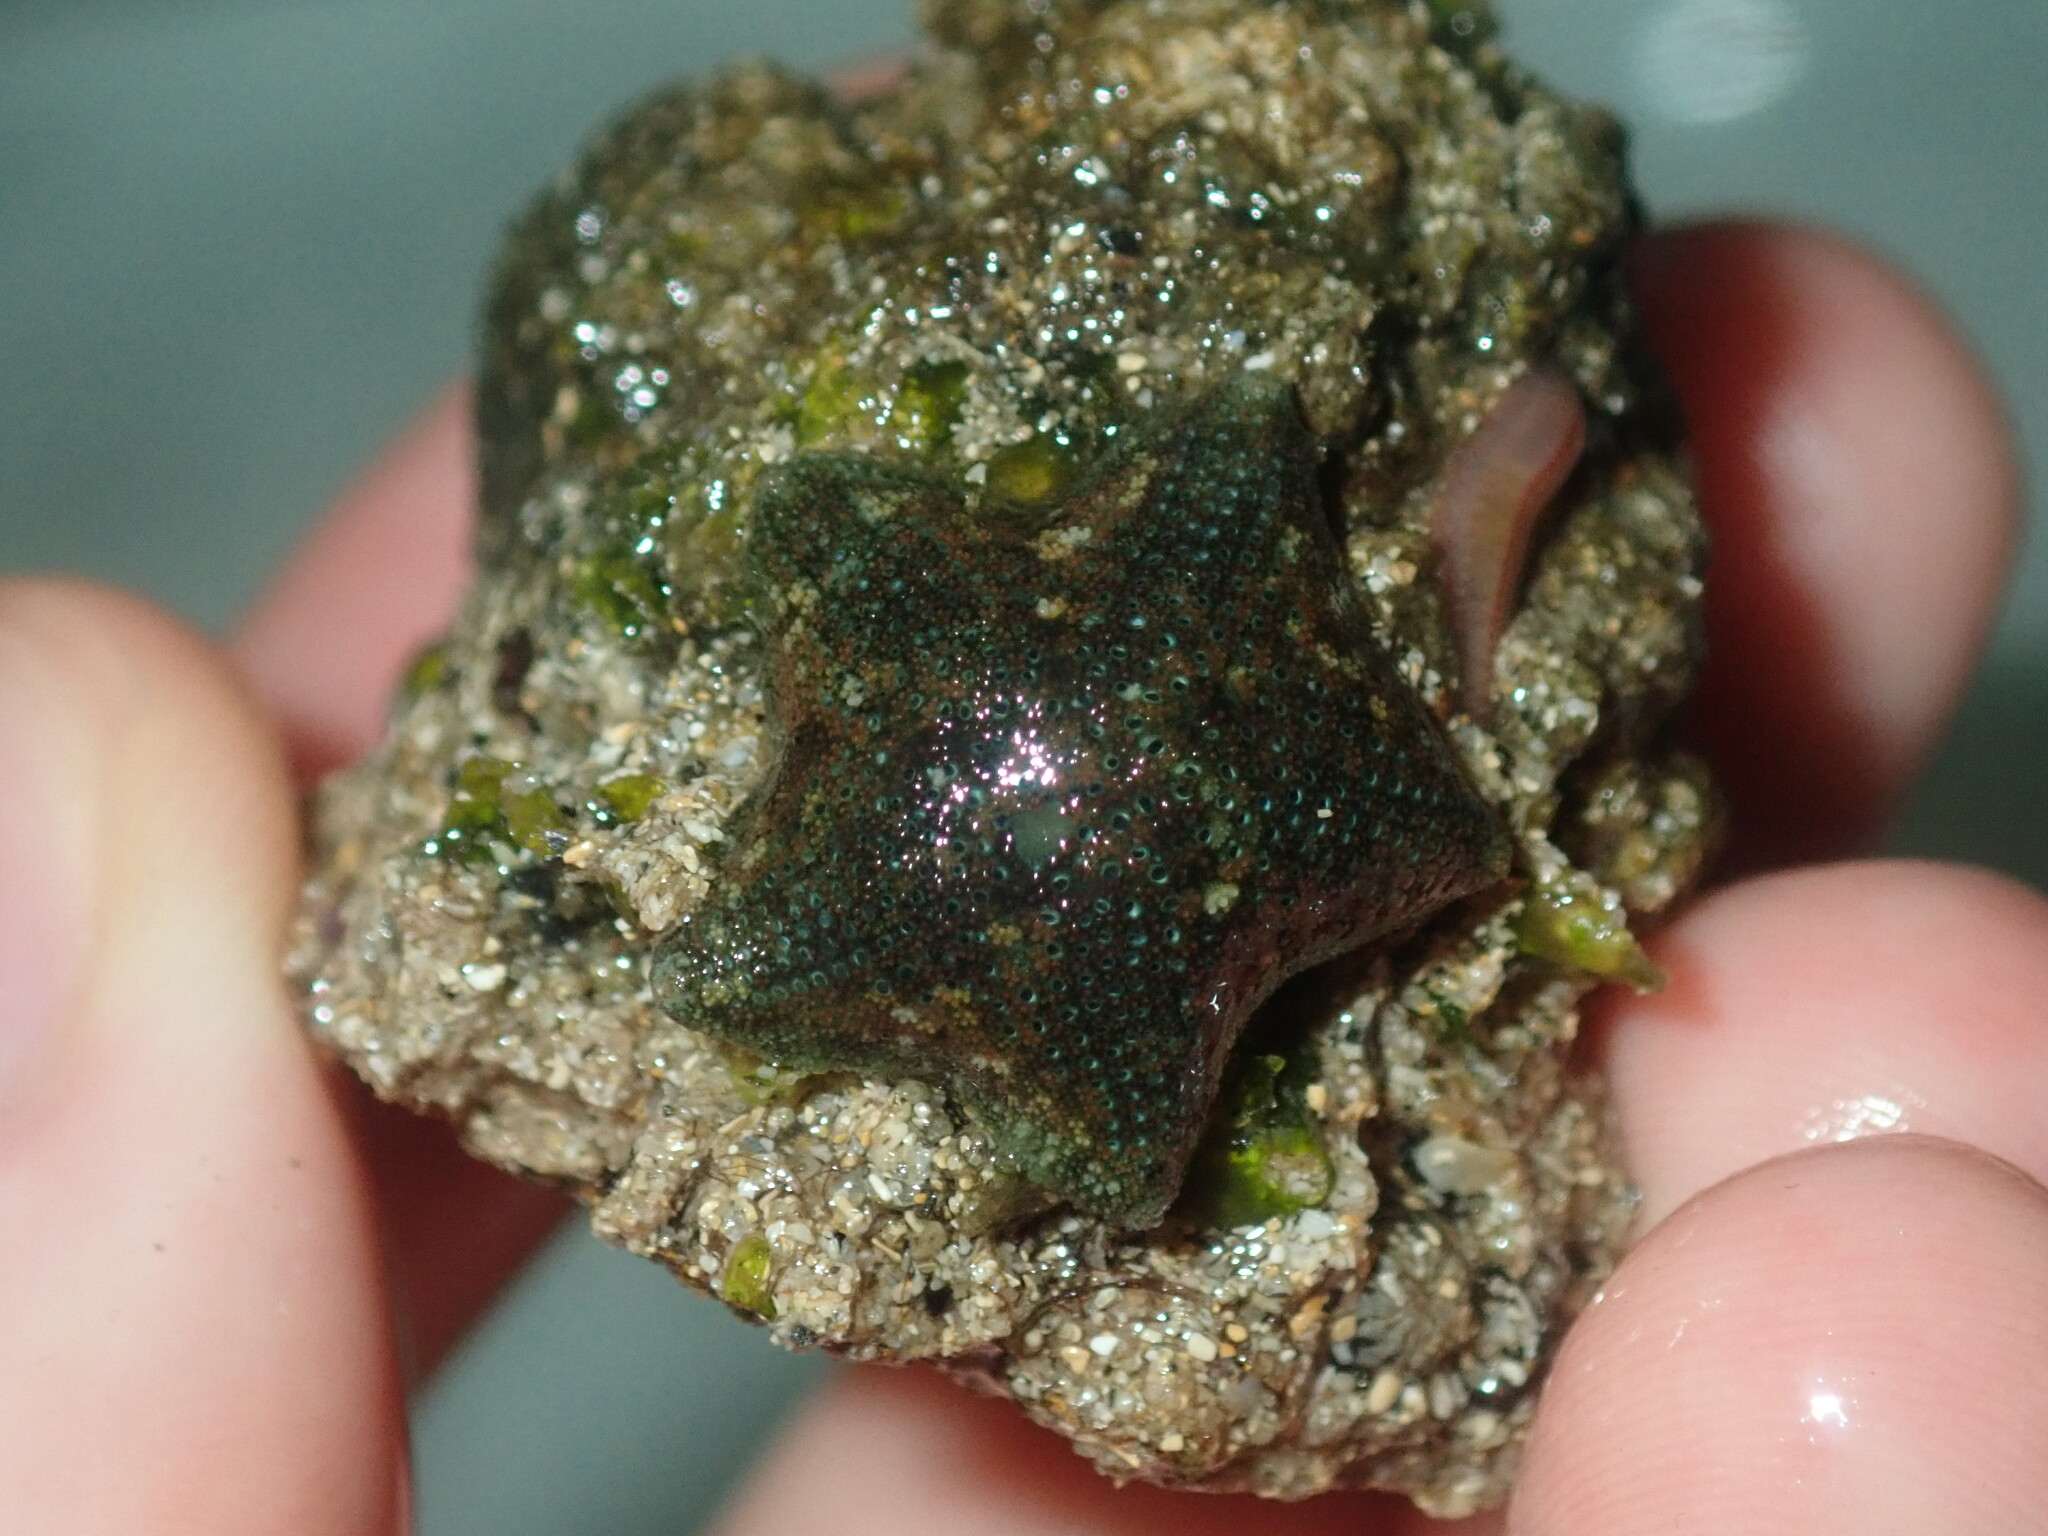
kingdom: Animalia
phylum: Echinodermata
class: Asteroidea
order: Valvatida
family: Asterinidae
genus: Parvulastra
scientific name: Parvulastra exigua
